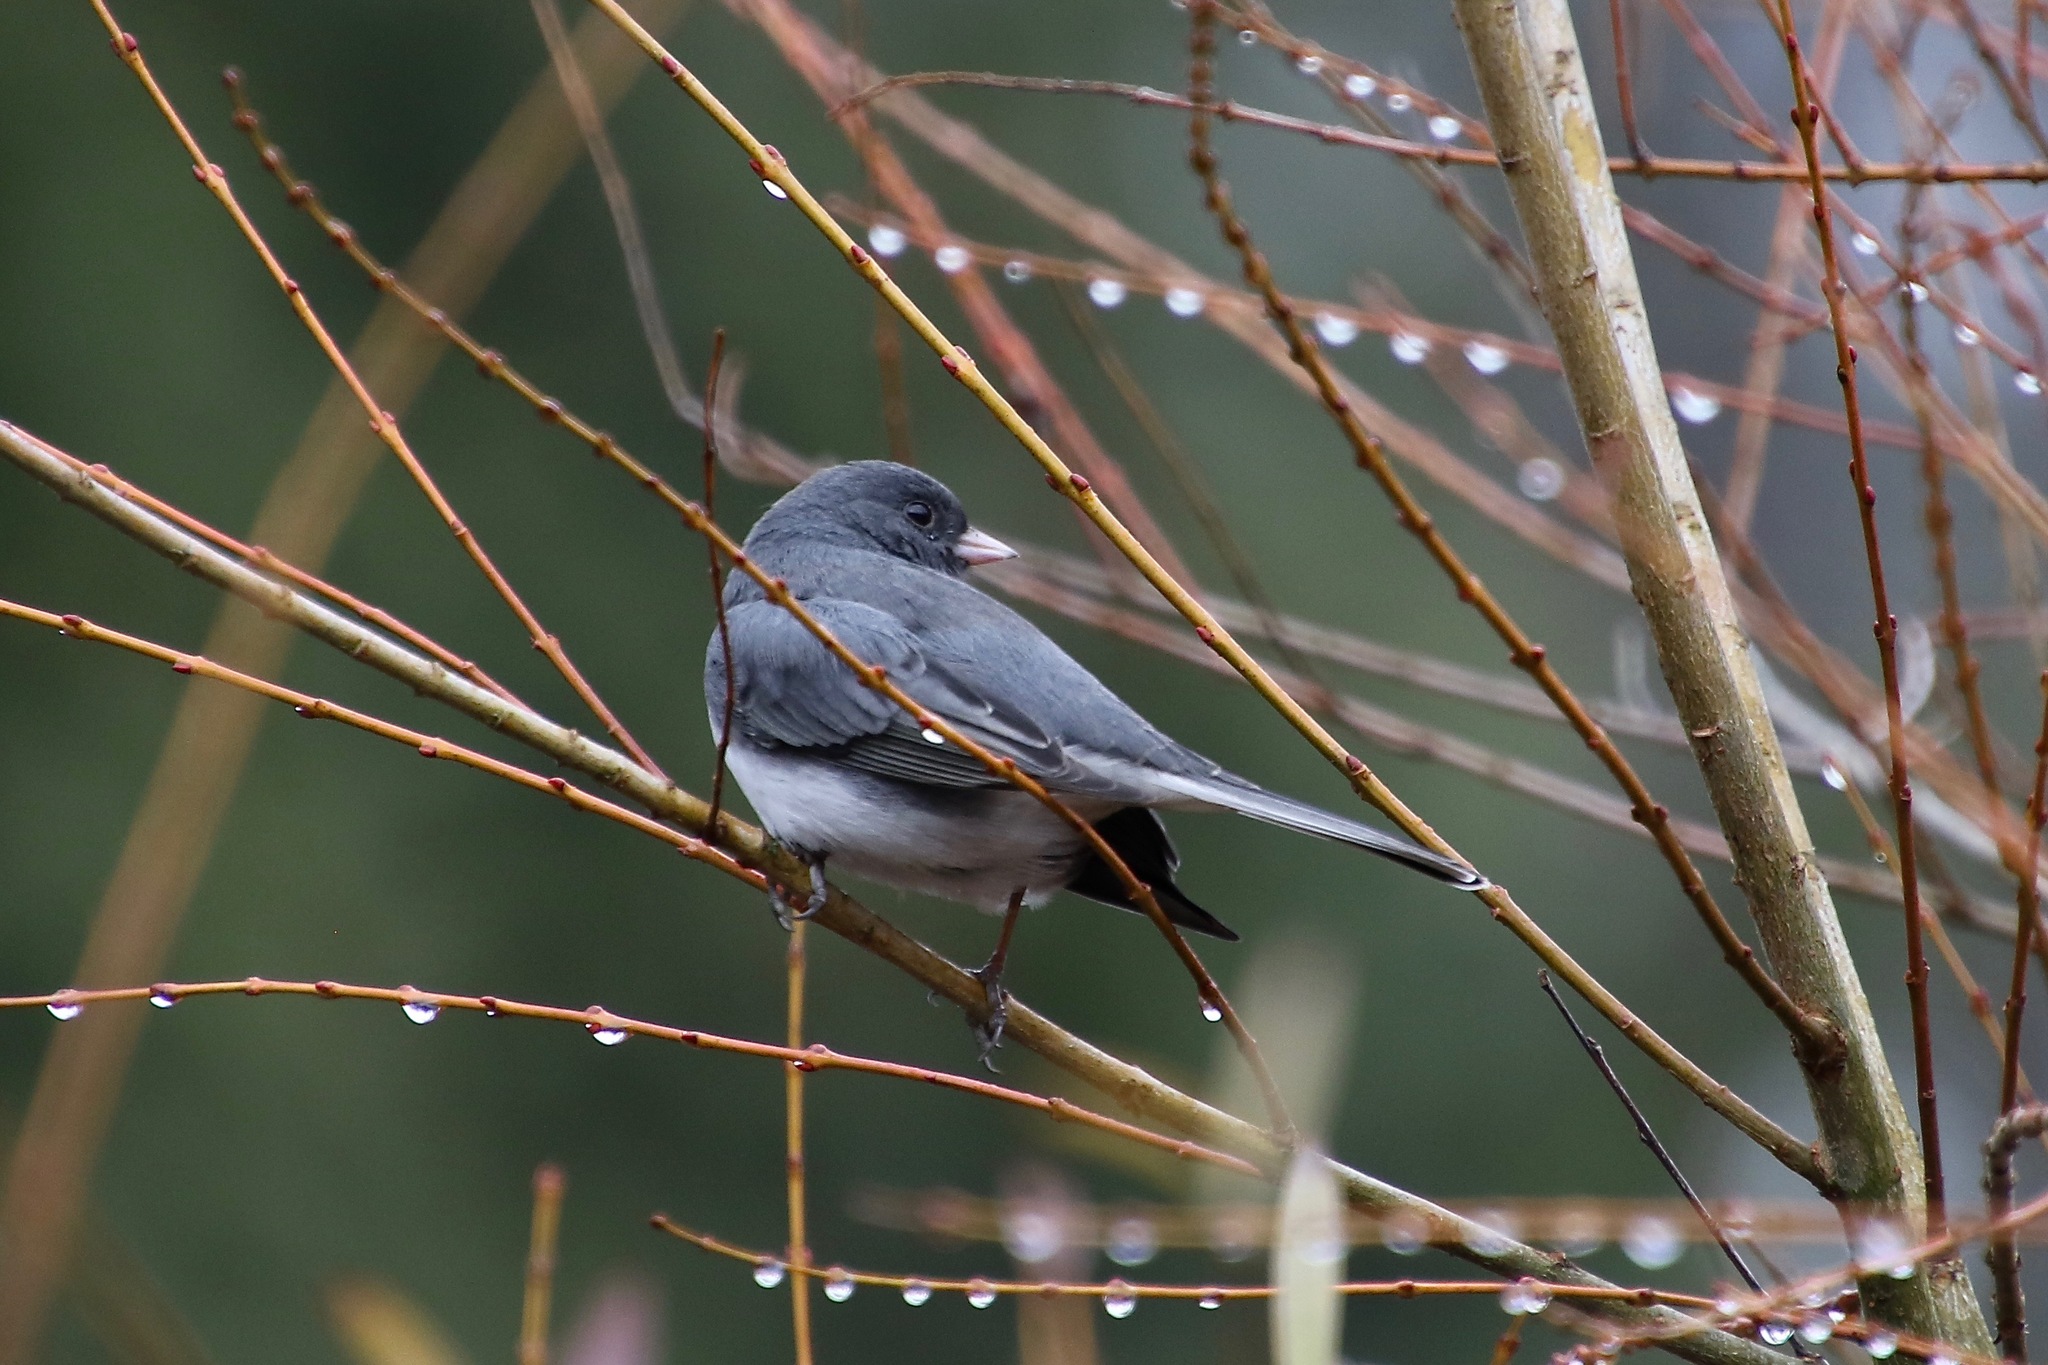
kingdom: Animalia
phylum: Chordata
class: Aves
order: Passeriformes
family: Passerellidae
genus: Junco
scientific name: Junco hyemalis
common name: Dark-eyed junco
